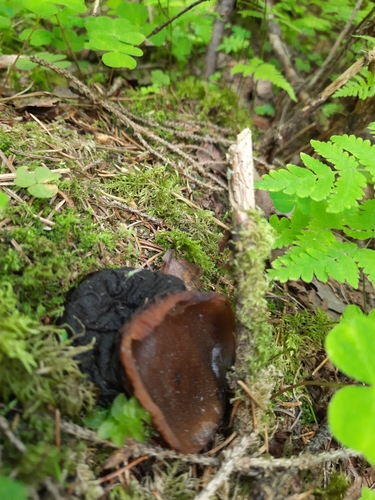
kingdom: Fungi
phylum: Ascomycota
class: Pezizomycetes
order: Pezizales
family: Sarcosomataceae
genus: Sarcosoma
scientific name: Sarcosoma globosum
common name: Charred-pancake cup
